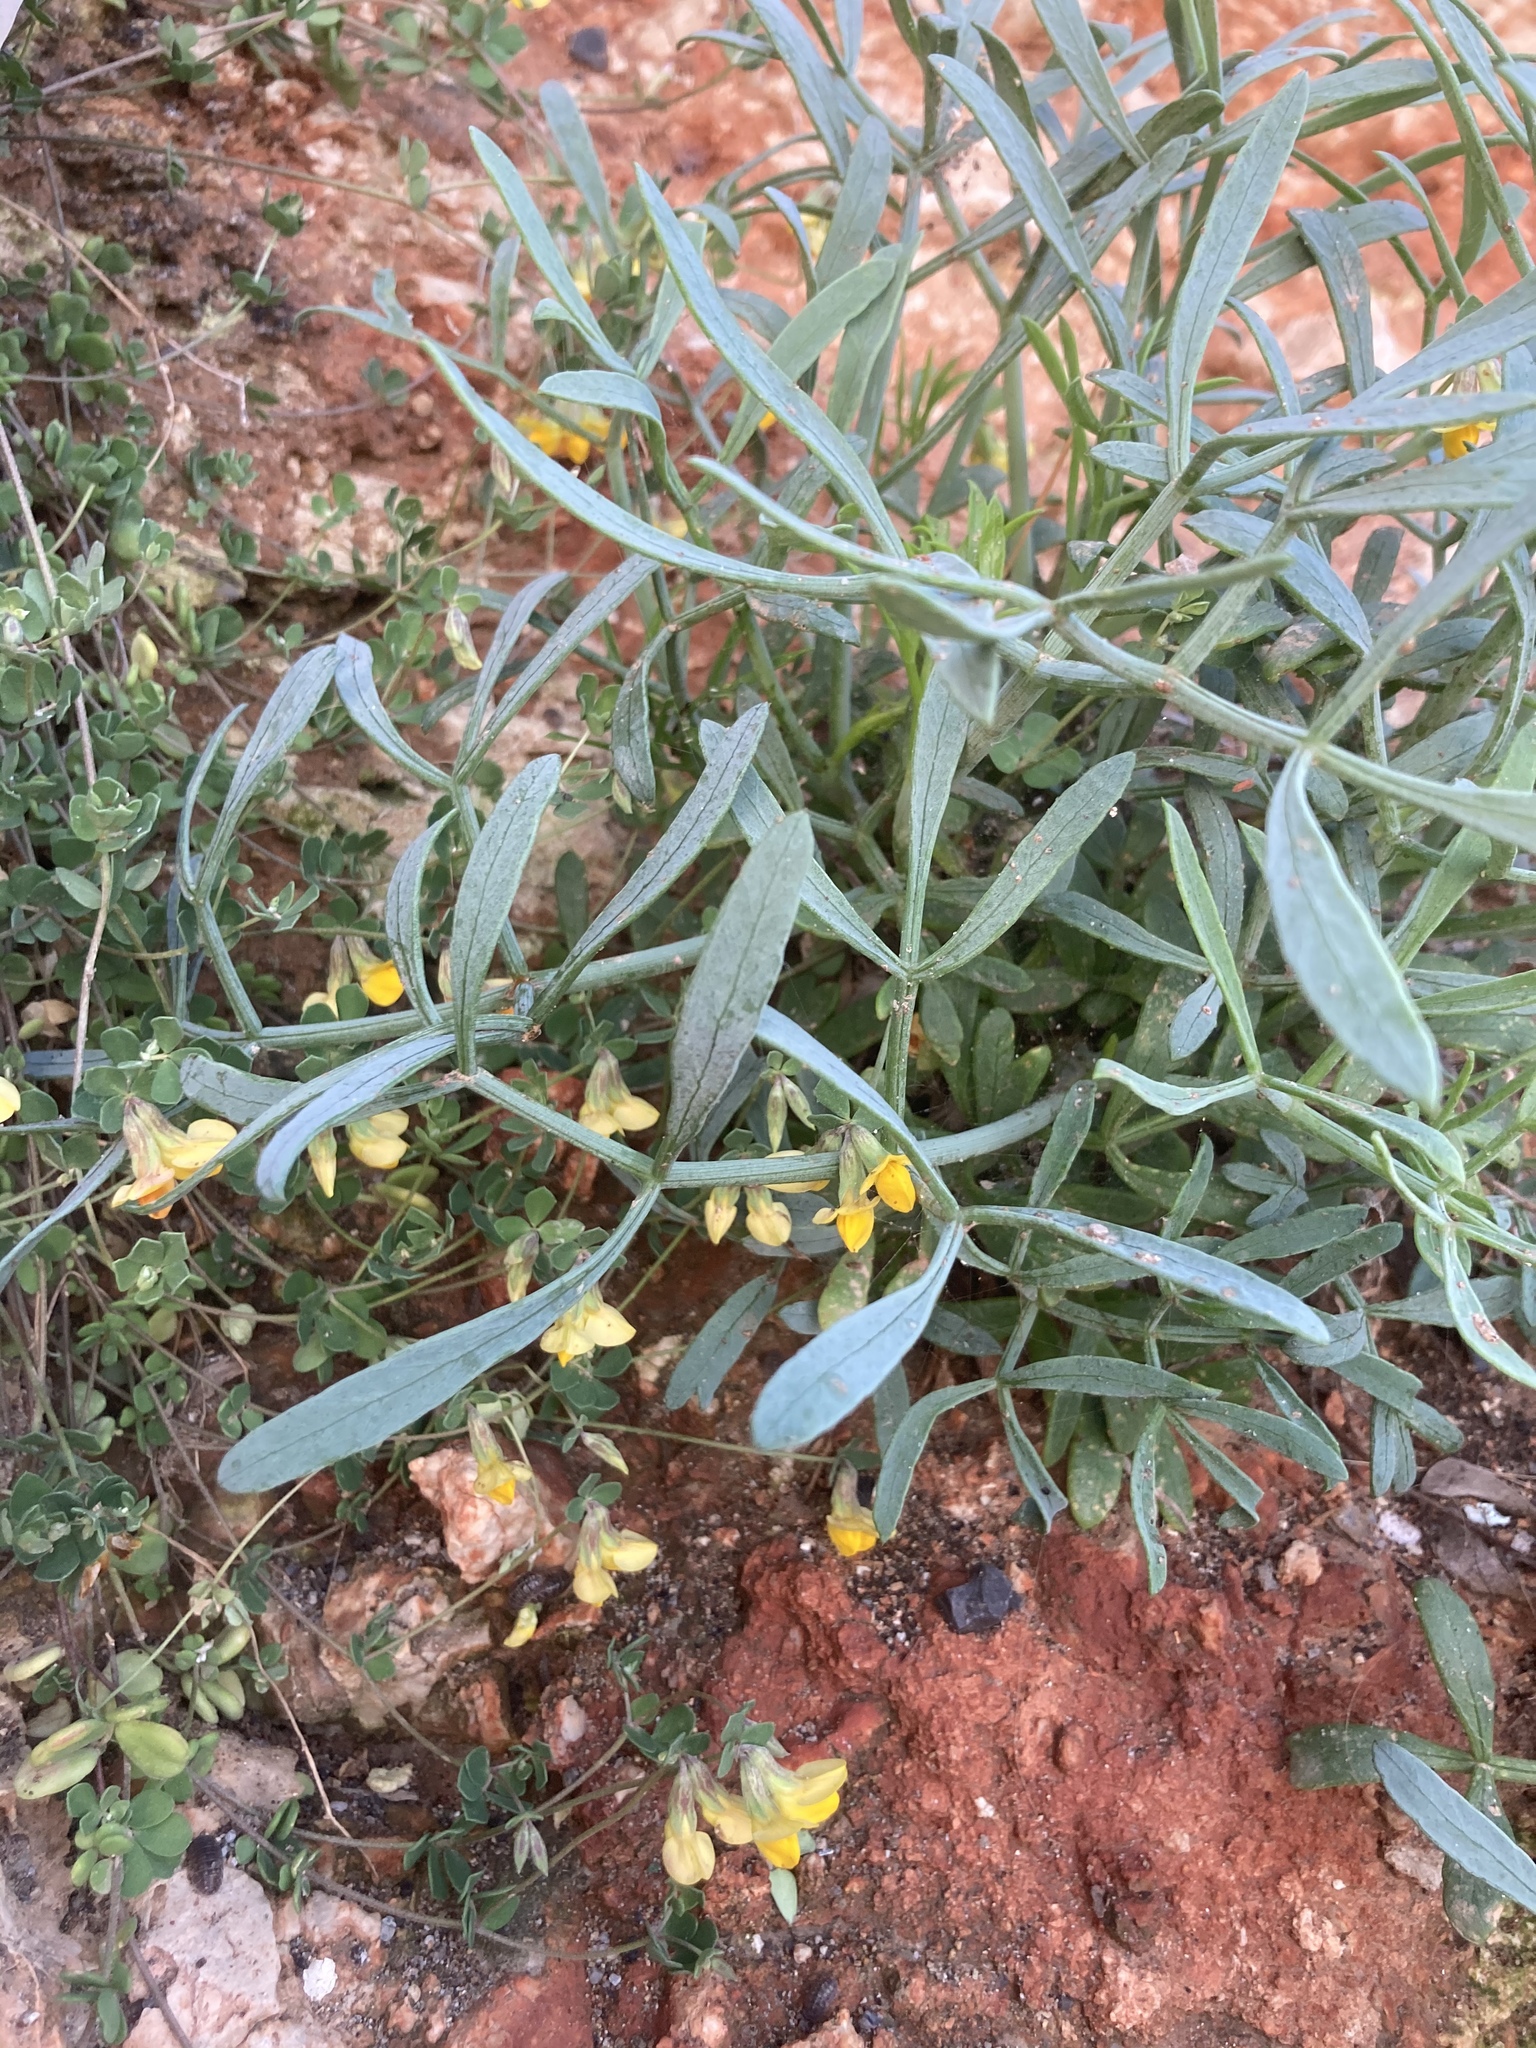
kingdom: Plantae
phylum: Tracheophyta
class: Magnoliopsida
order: Apiales
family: Apiaceae
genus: Crithmum
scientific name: Crithmum maritimum
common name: Rock samphire
